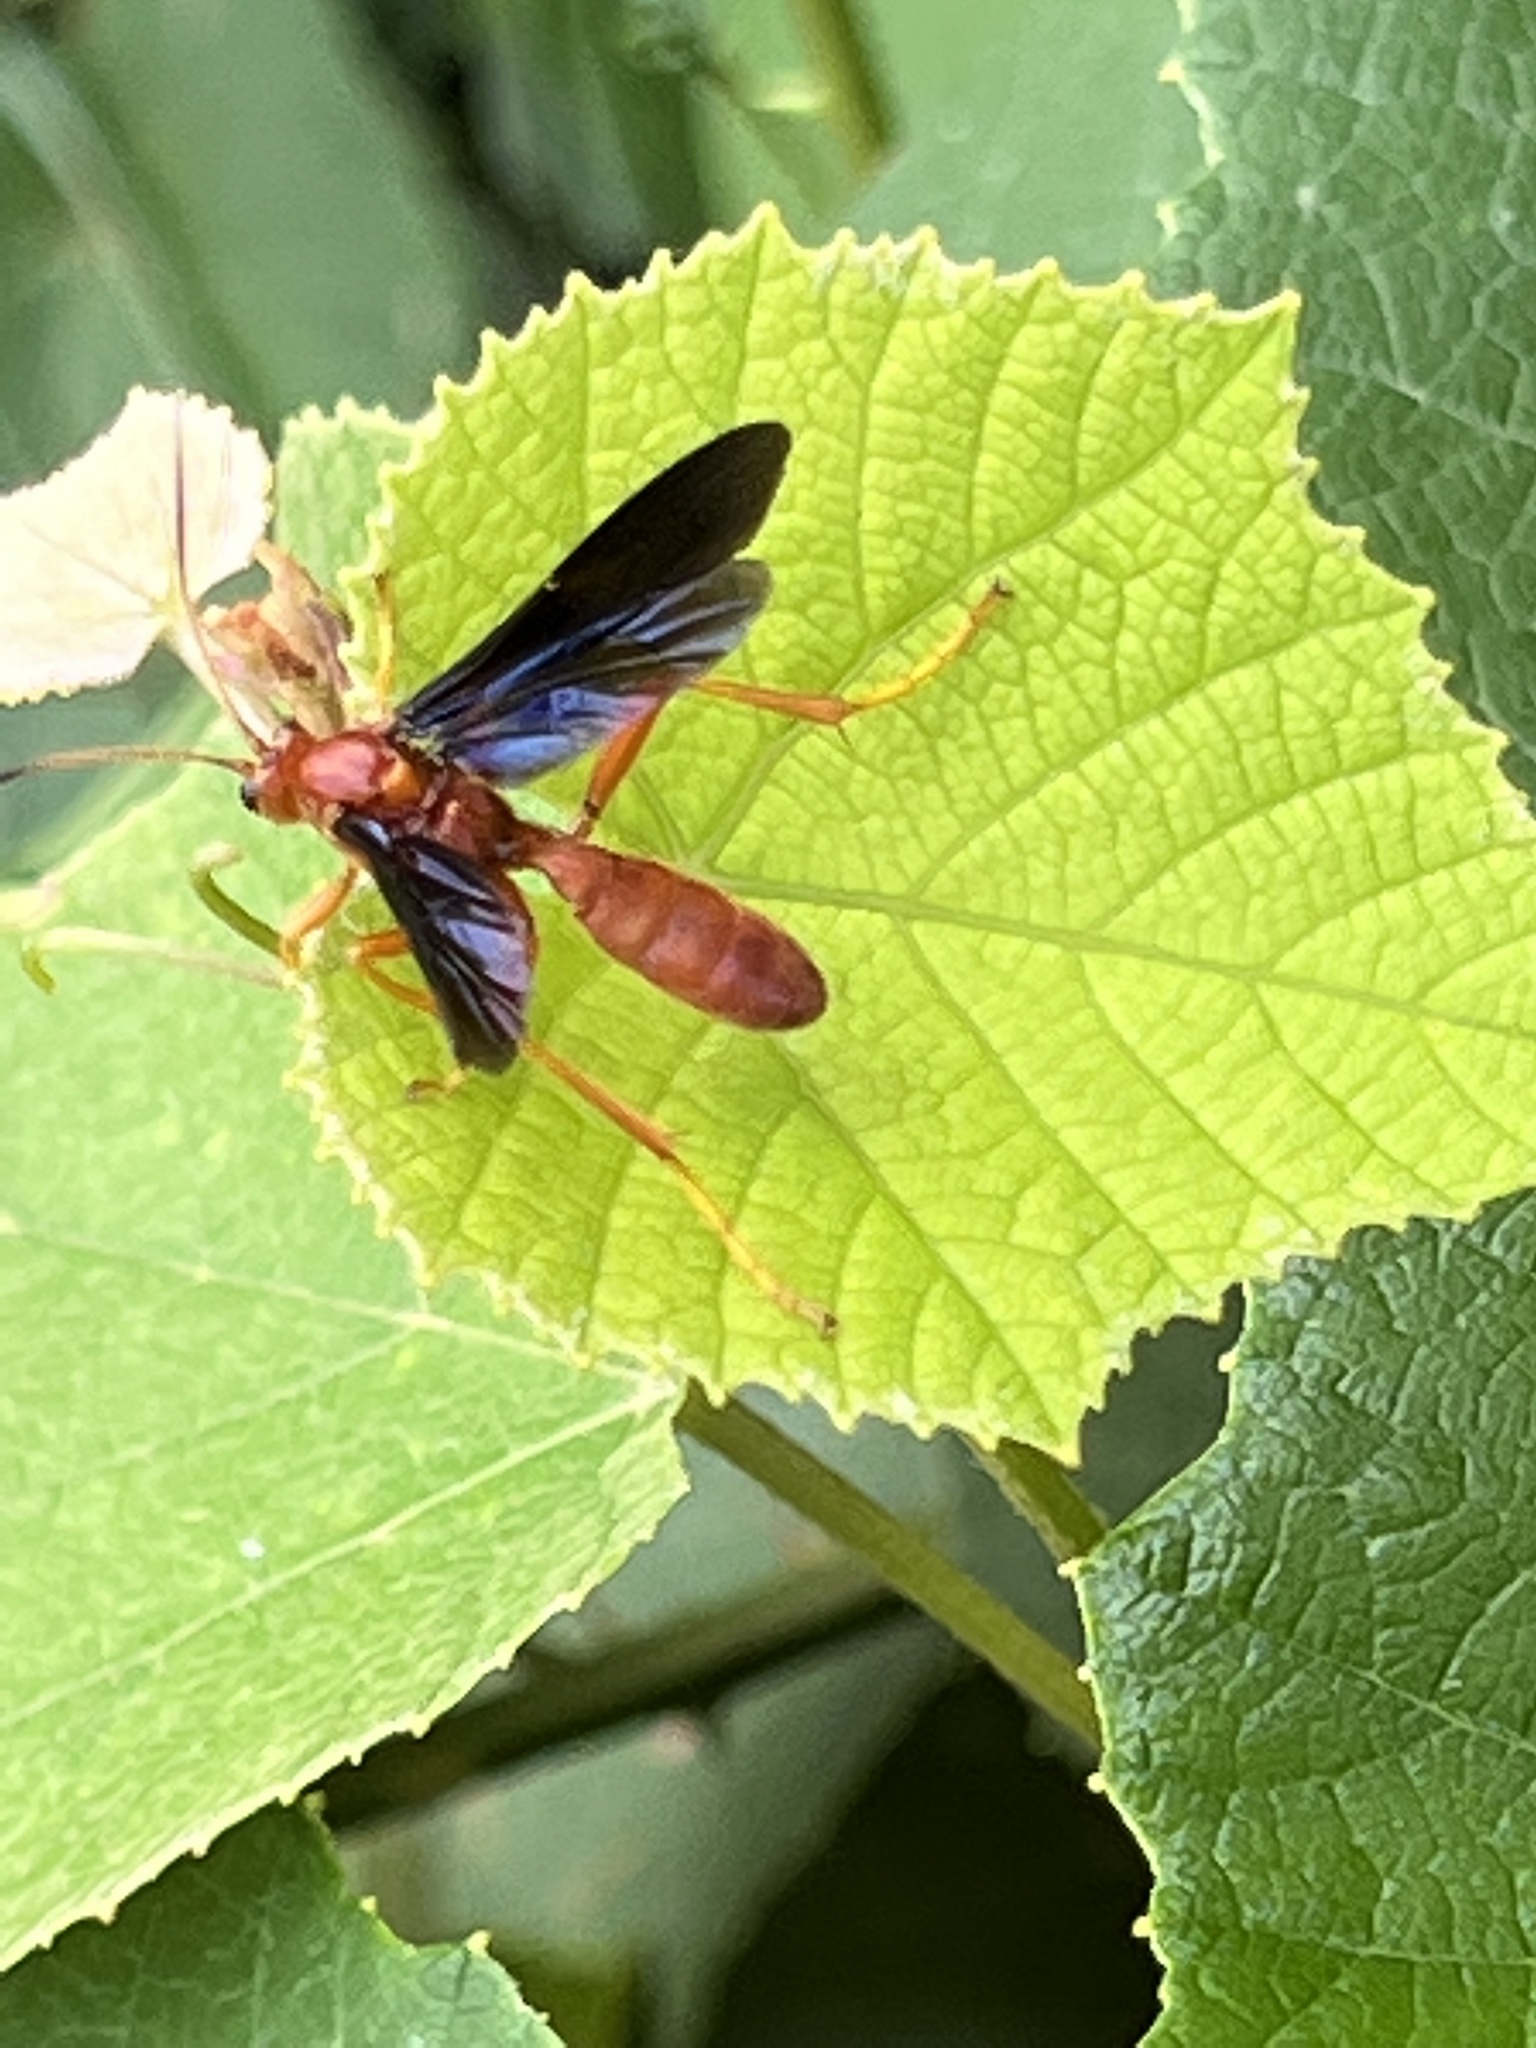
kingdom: Animalia
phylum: Arthropoda
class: Insecta
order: Hymenoptera
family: Ichneumonidae
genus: Trogus
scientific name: Trogus vulpinus
